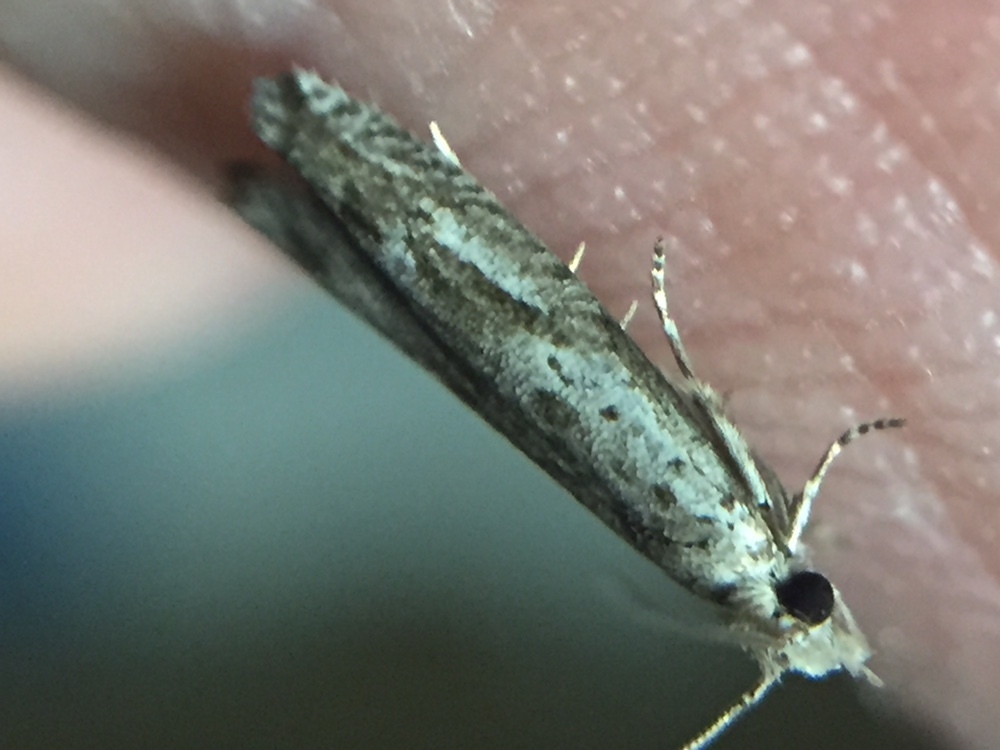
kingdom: Animalia
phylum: Arthropoda
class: Insecta
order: Lepidoptera
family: Tortricidae
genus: Holocola
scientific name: Holocola zopherana
